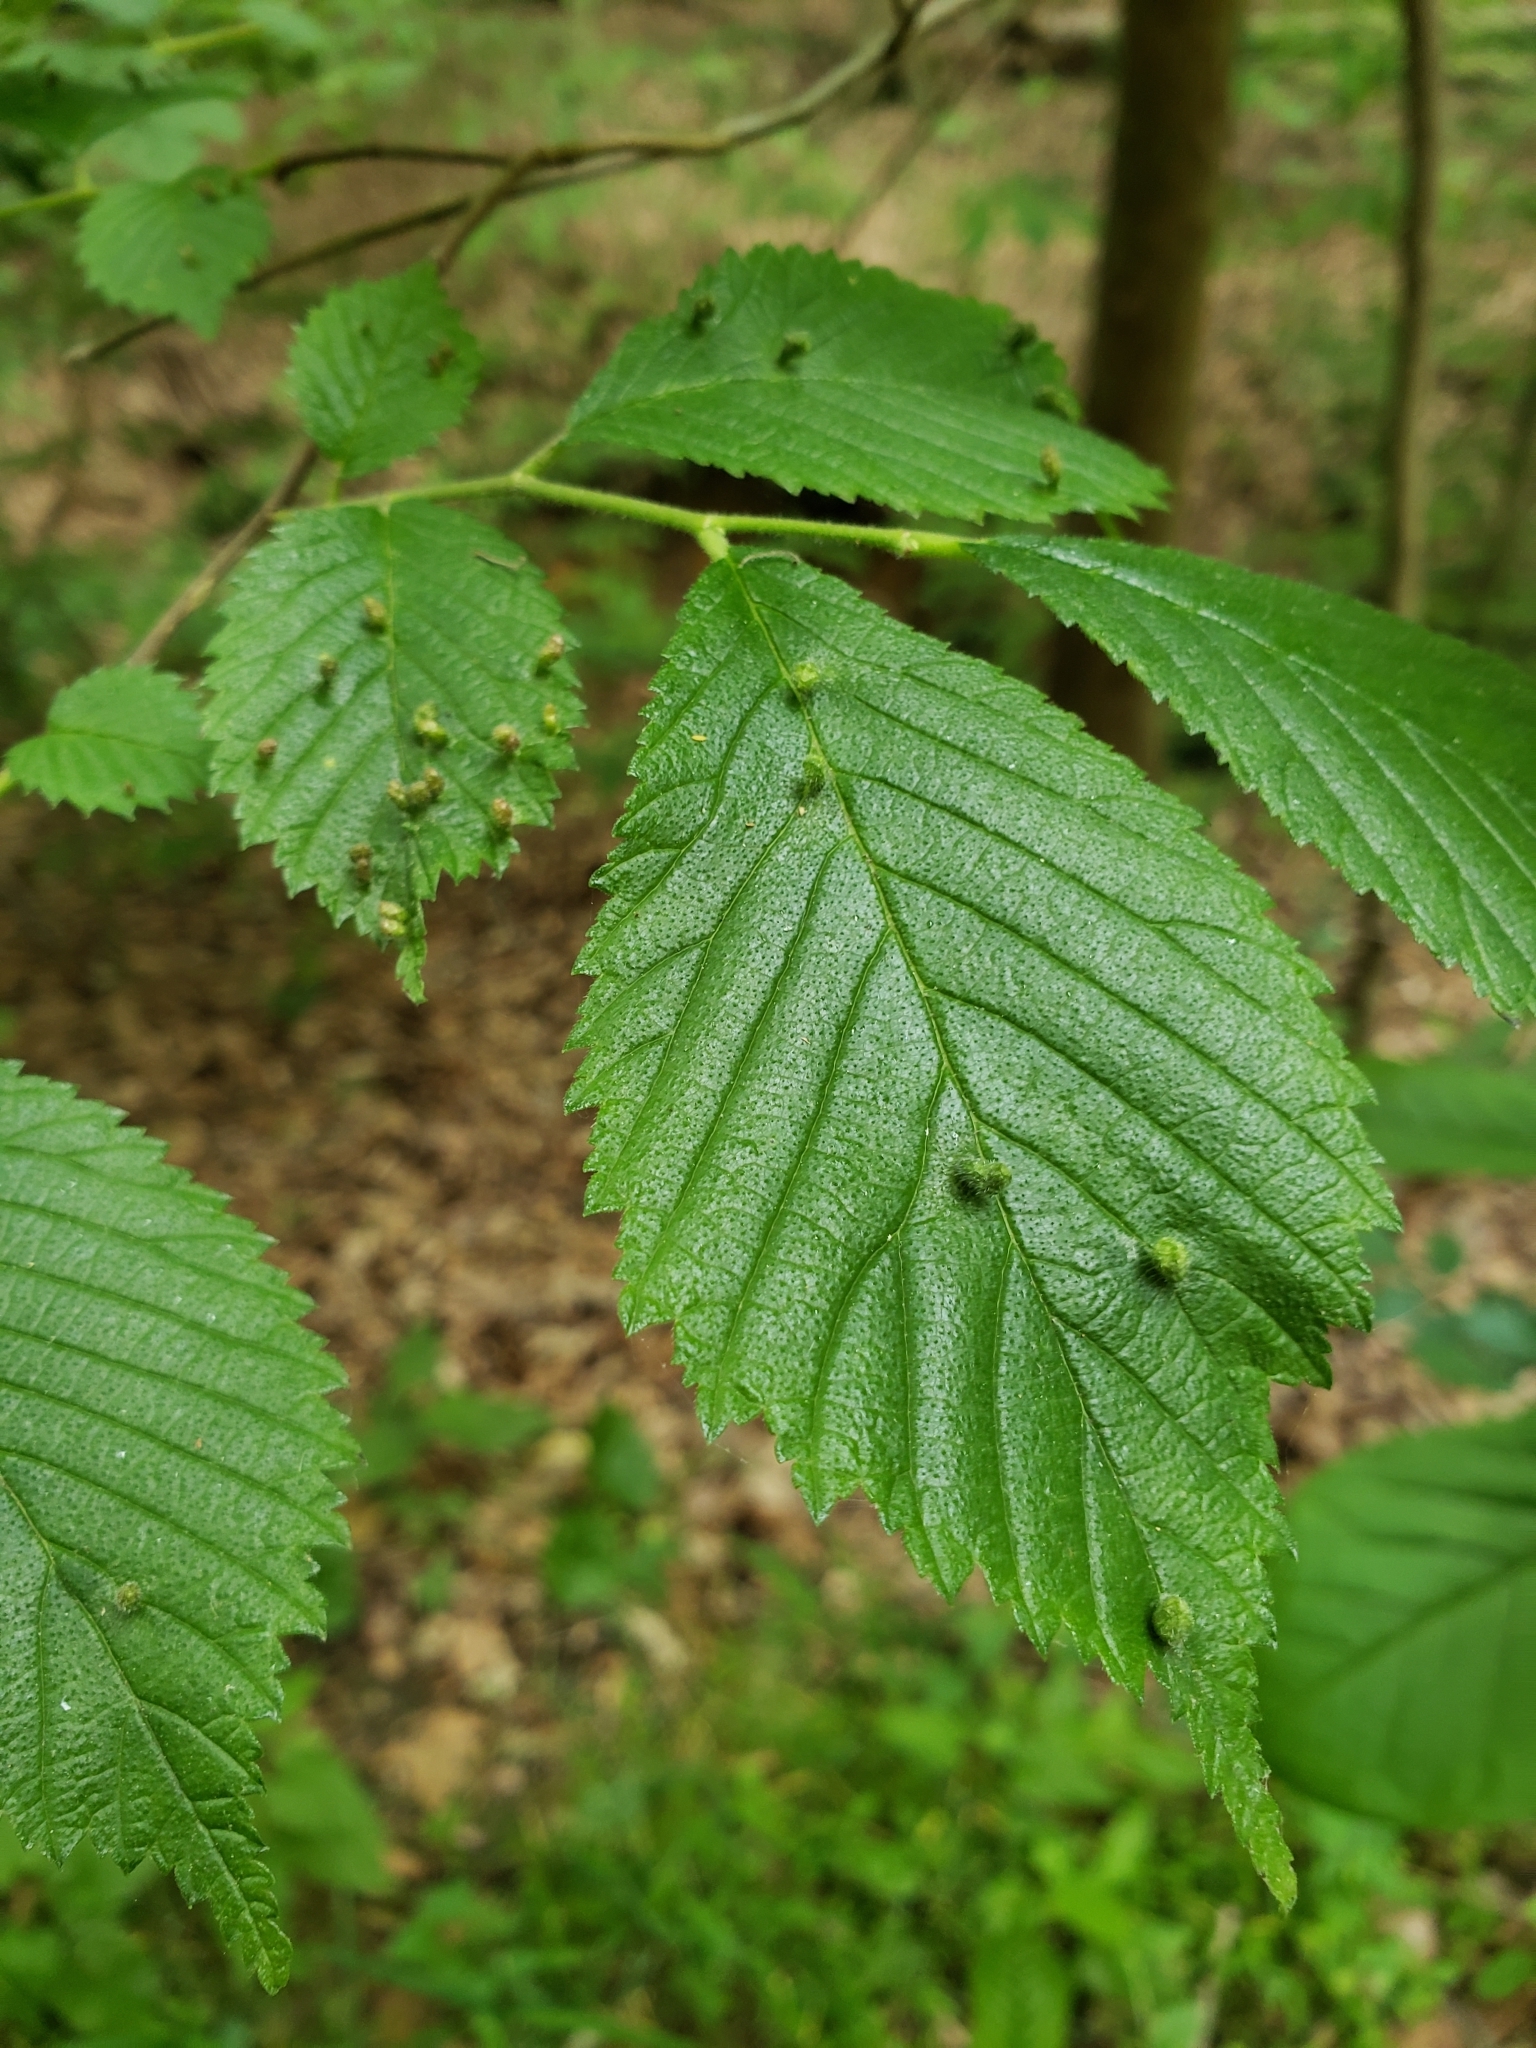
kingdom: Animalia
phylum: Arthropoda
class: Arachnida
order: Trombidiformes
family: Eriophyidae
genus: Aceria
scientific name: Aceria
